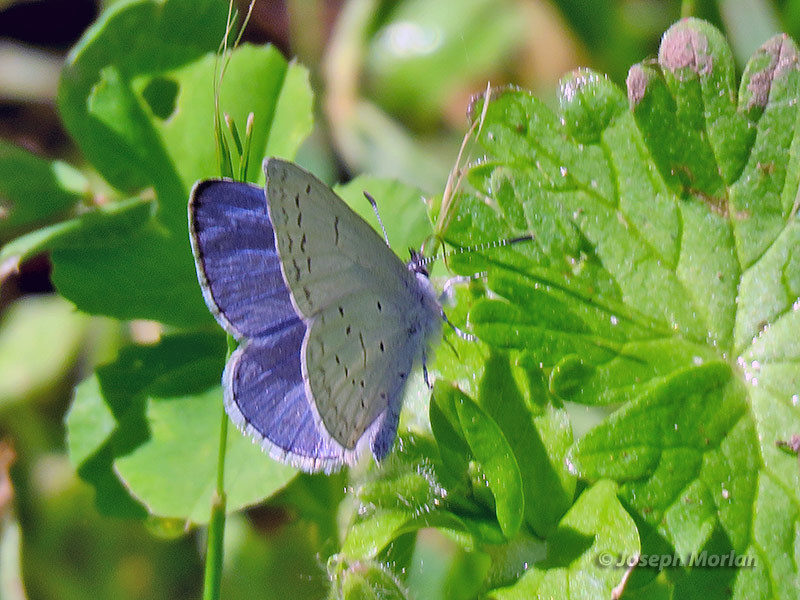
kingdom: Animalia
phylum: Arthropoda
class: Insecta
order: Lepidoptera
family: Lycaenidae
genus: Celastrina
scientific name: Celastrina ladon
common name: Spring azure
